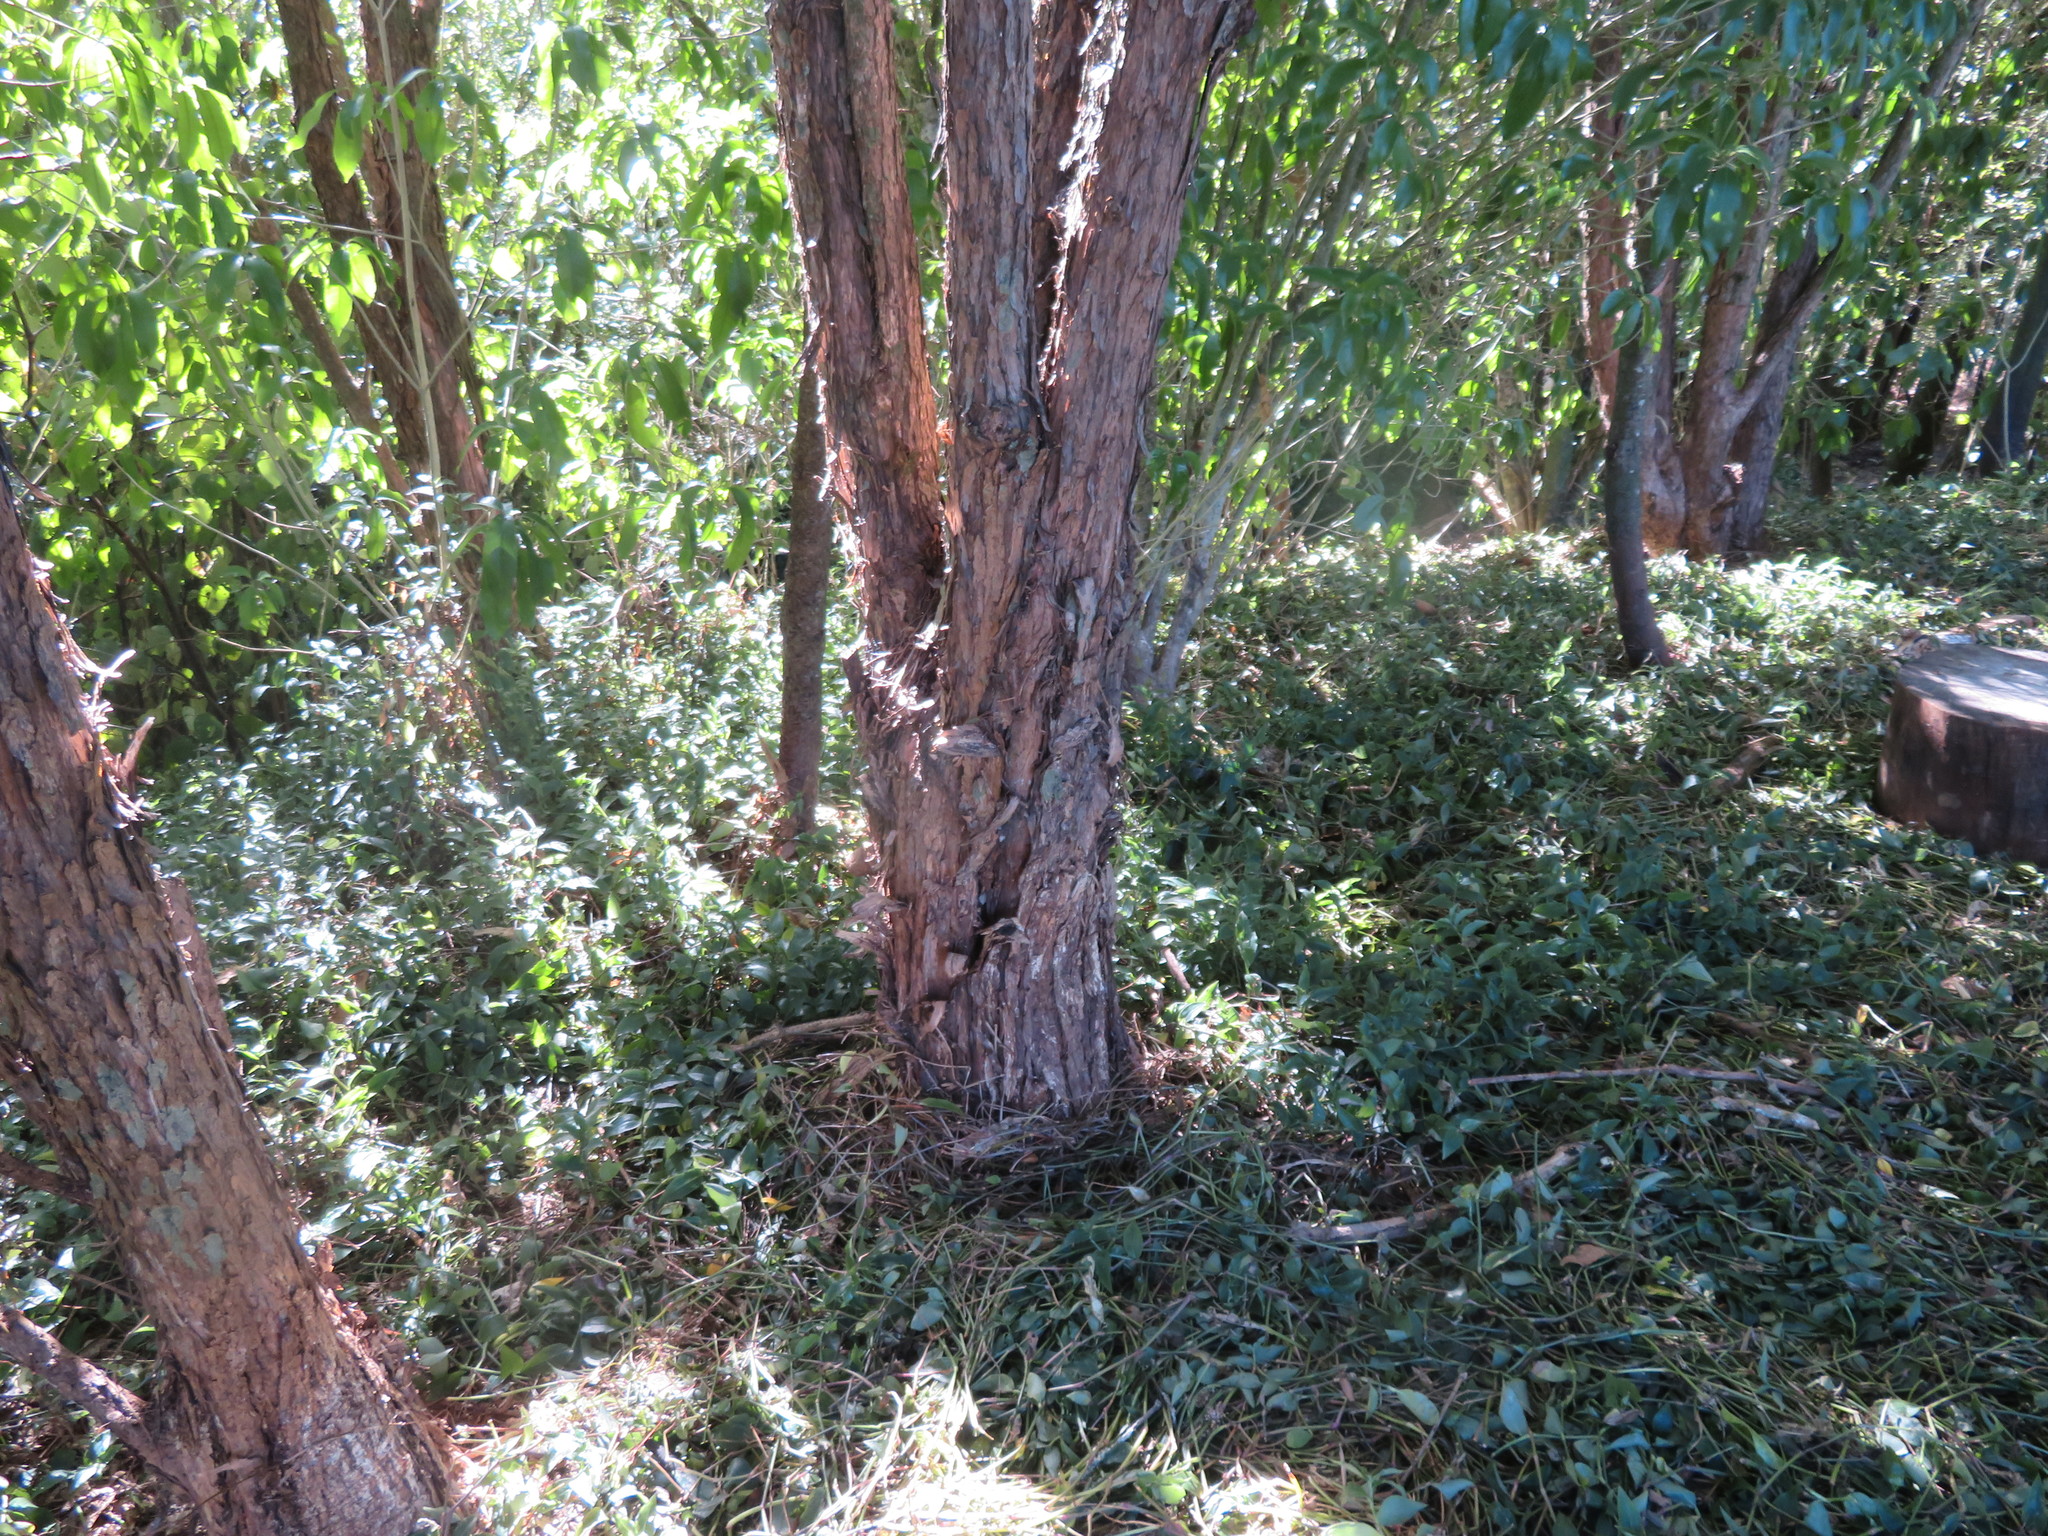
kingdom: Plantae
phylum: Tracheophyta
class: Magnoliopsida
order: Malpighiales
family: Violaceae
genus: Melicytus
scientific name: Melicytus ramiflorus
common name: Mahoe
